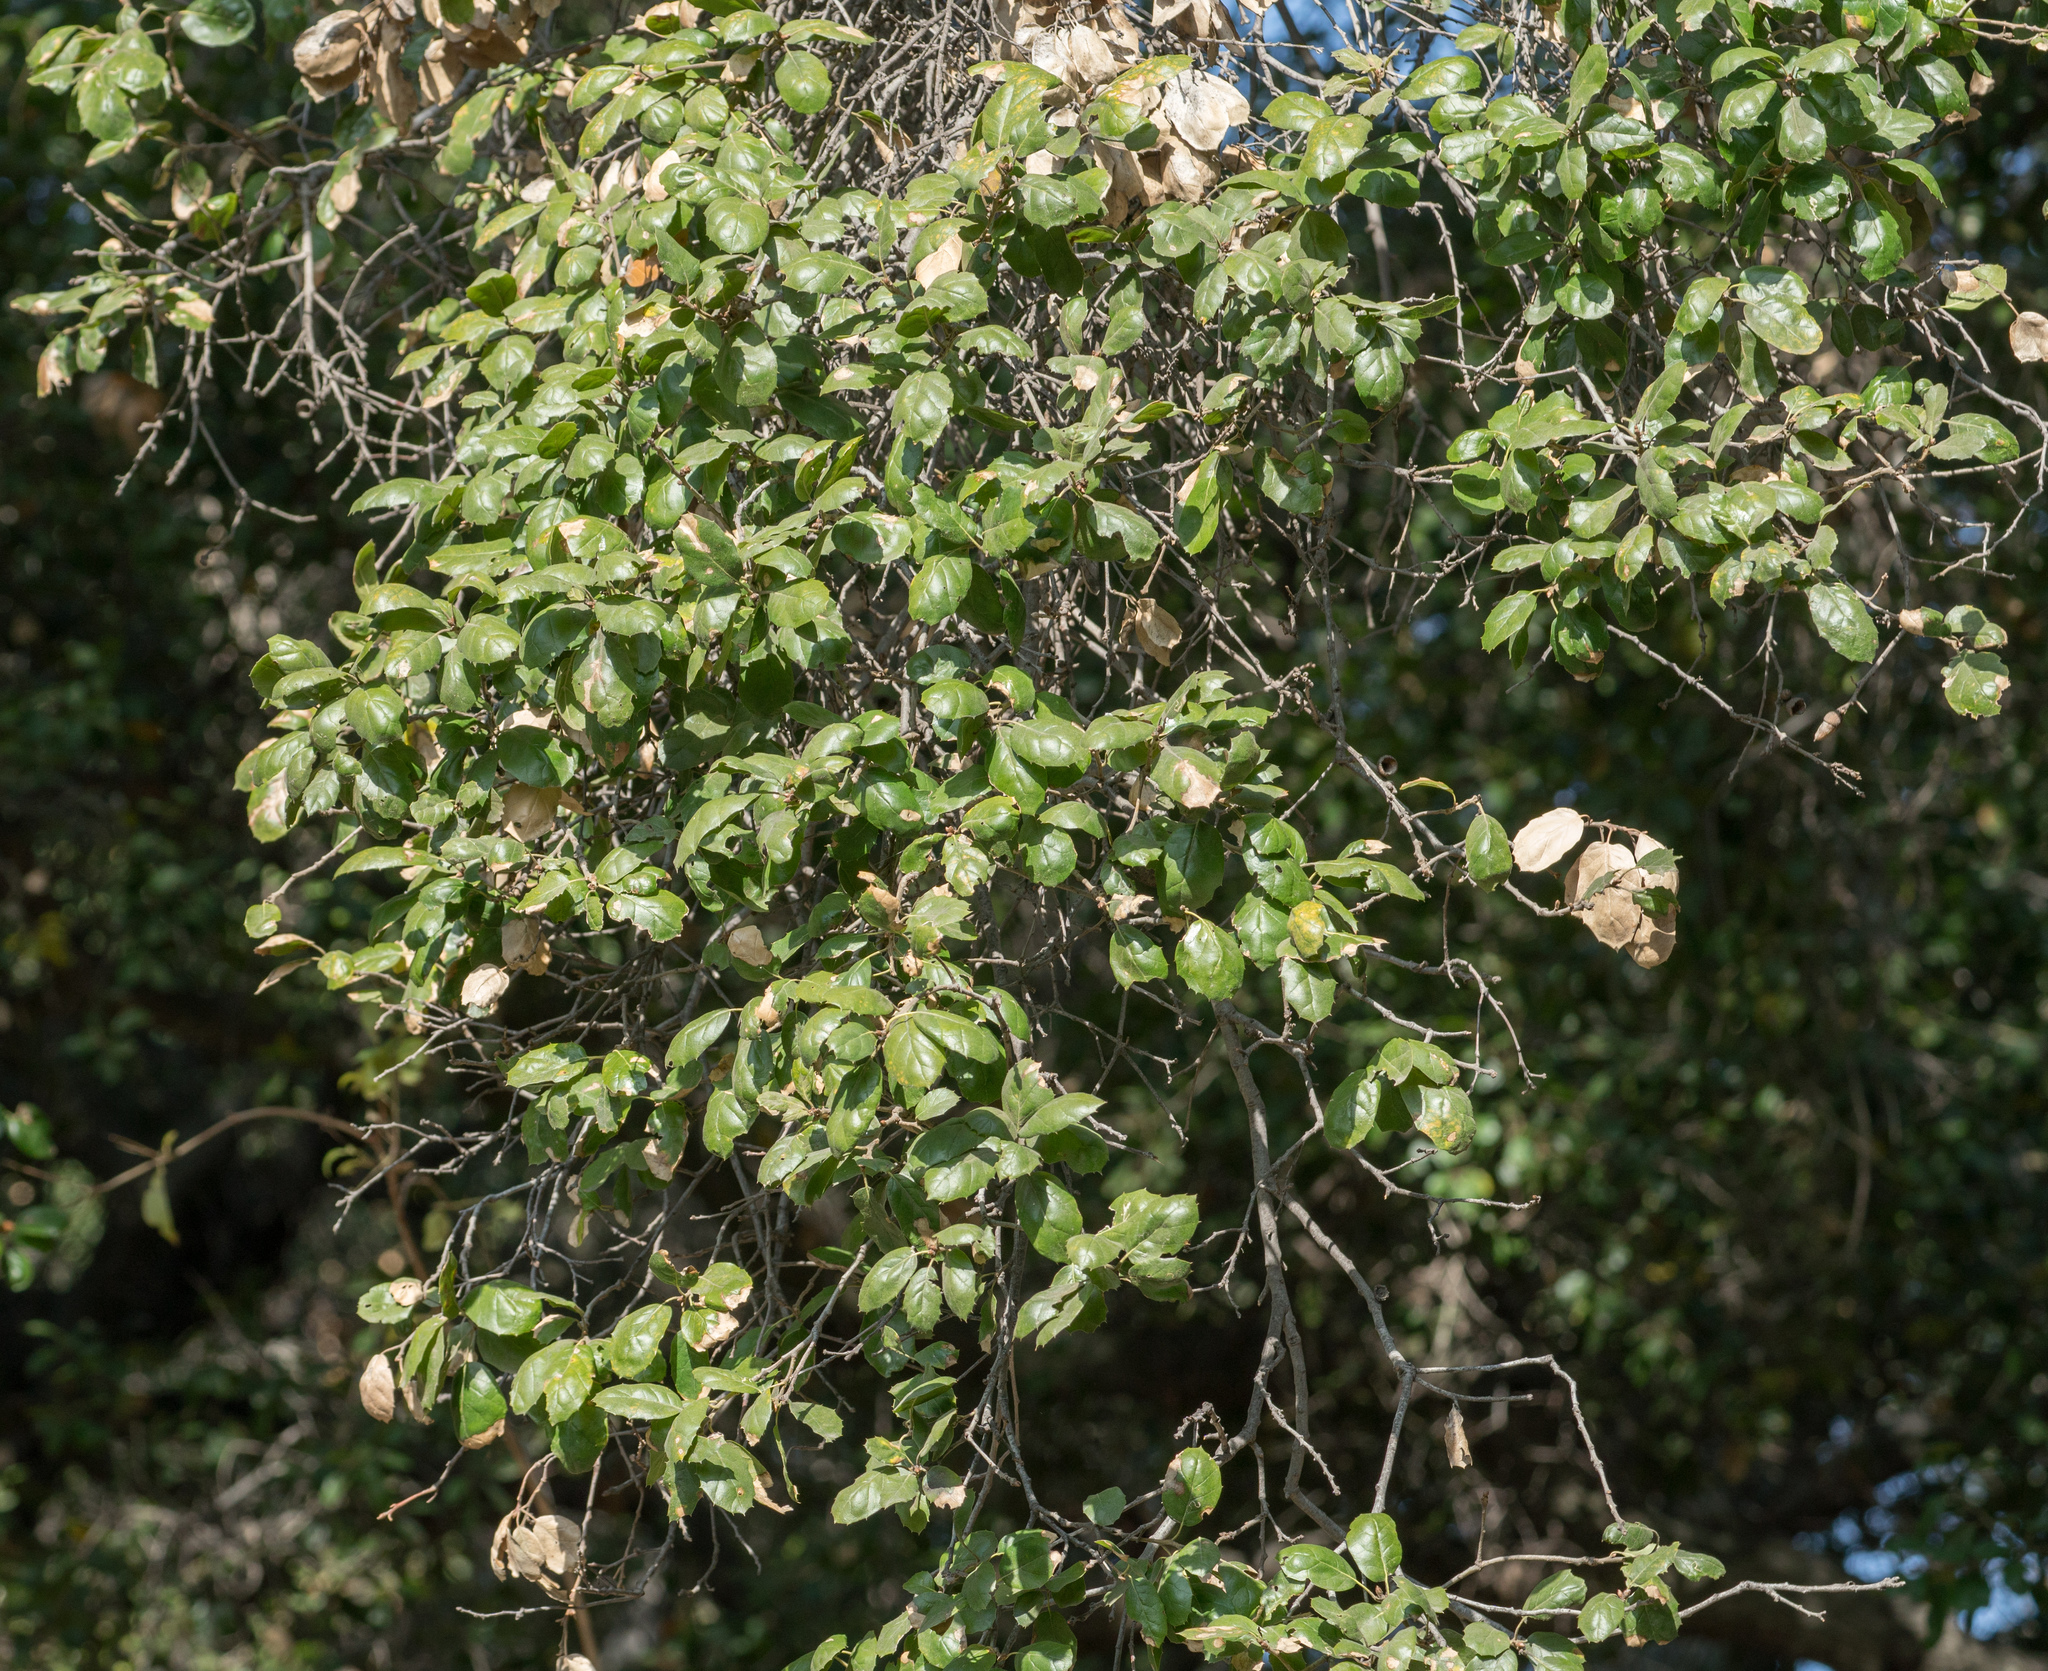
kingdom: Plantae
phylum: Tracheophyta
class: Magnoliopsida
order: Fagales
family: Fagaceae
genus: Quercus
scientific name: Quercus agrifolia
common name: California live oak
